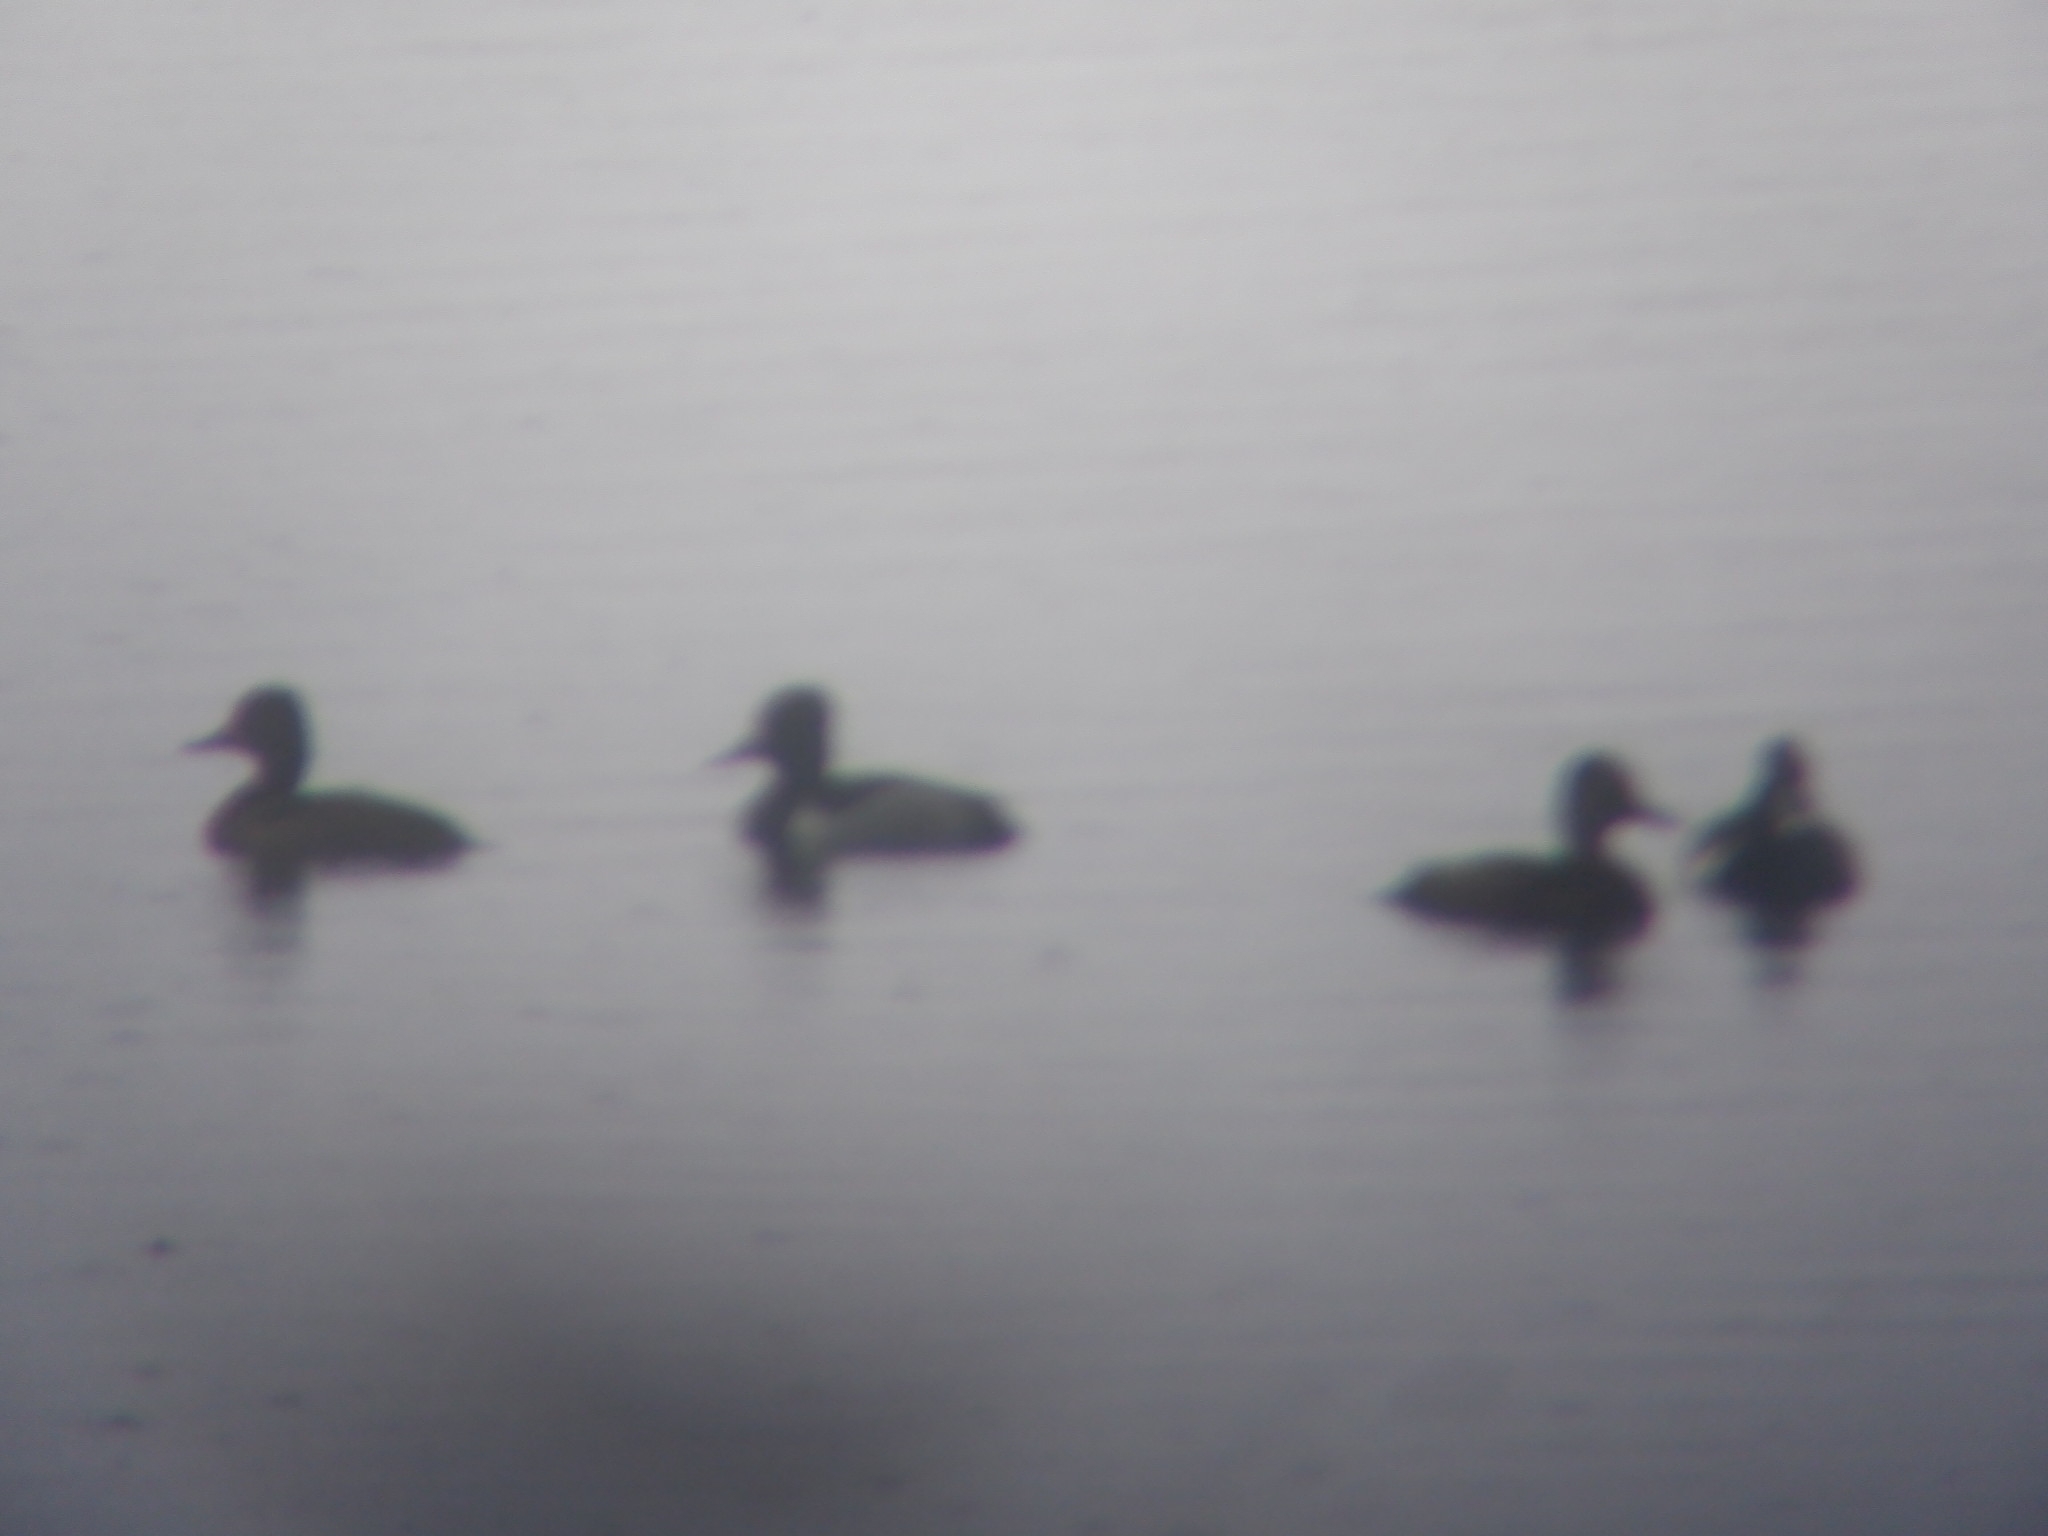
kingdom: Animalia
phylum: Chordata
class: Aves
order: Anseriformes
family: Anatidae
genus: Aythya
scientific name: Aythya collaris
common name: Ring-necked duck
